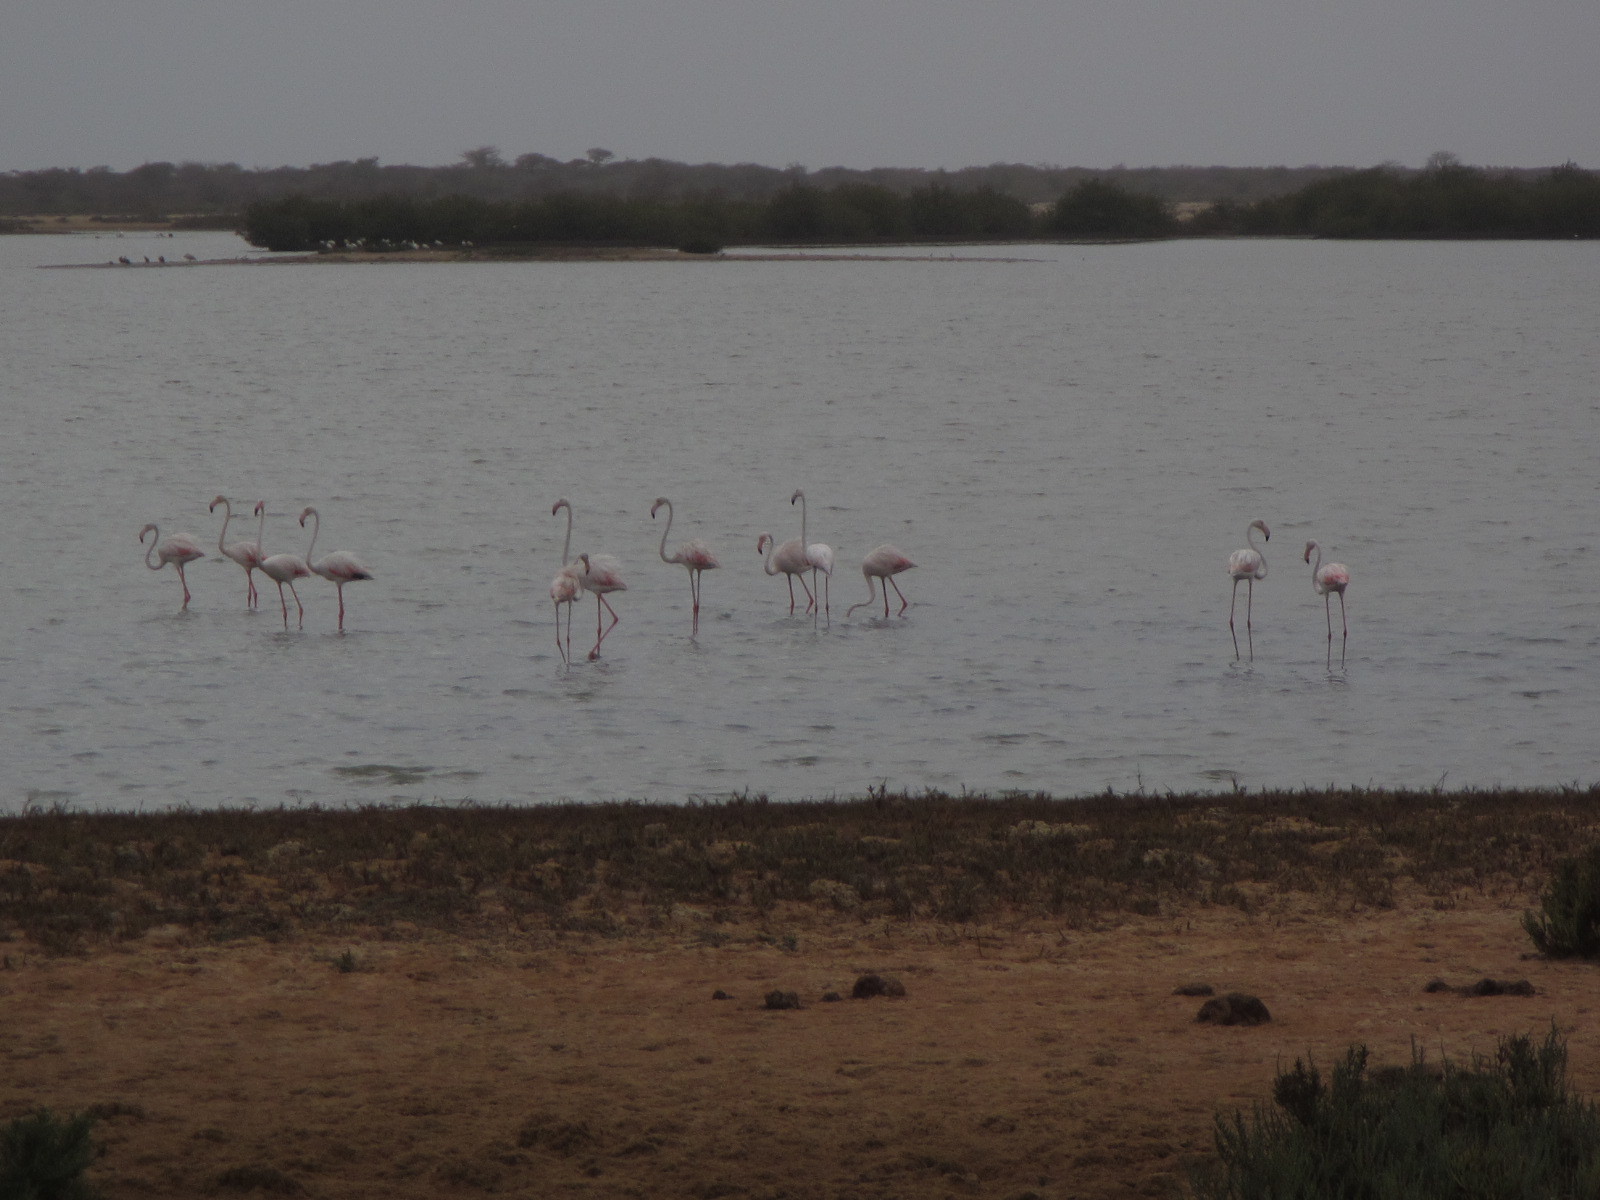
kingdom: Animalia
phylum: Chordata
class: Aves
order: Phoenicopteriformes
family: Phoenicopteridae
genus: Phoenicopterus
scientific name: Phoenicopterus roseus
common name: Greater flamingo
